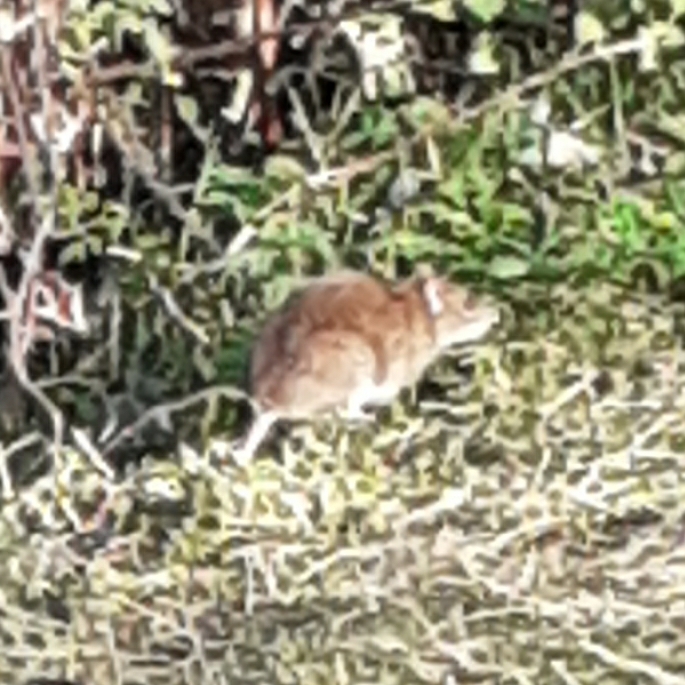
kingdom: Animalia
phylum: Chordata
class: Mammalia
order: Rodentia
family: Muridae
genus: Rattus
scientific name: Rattus norvegicus
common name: Brown rat
